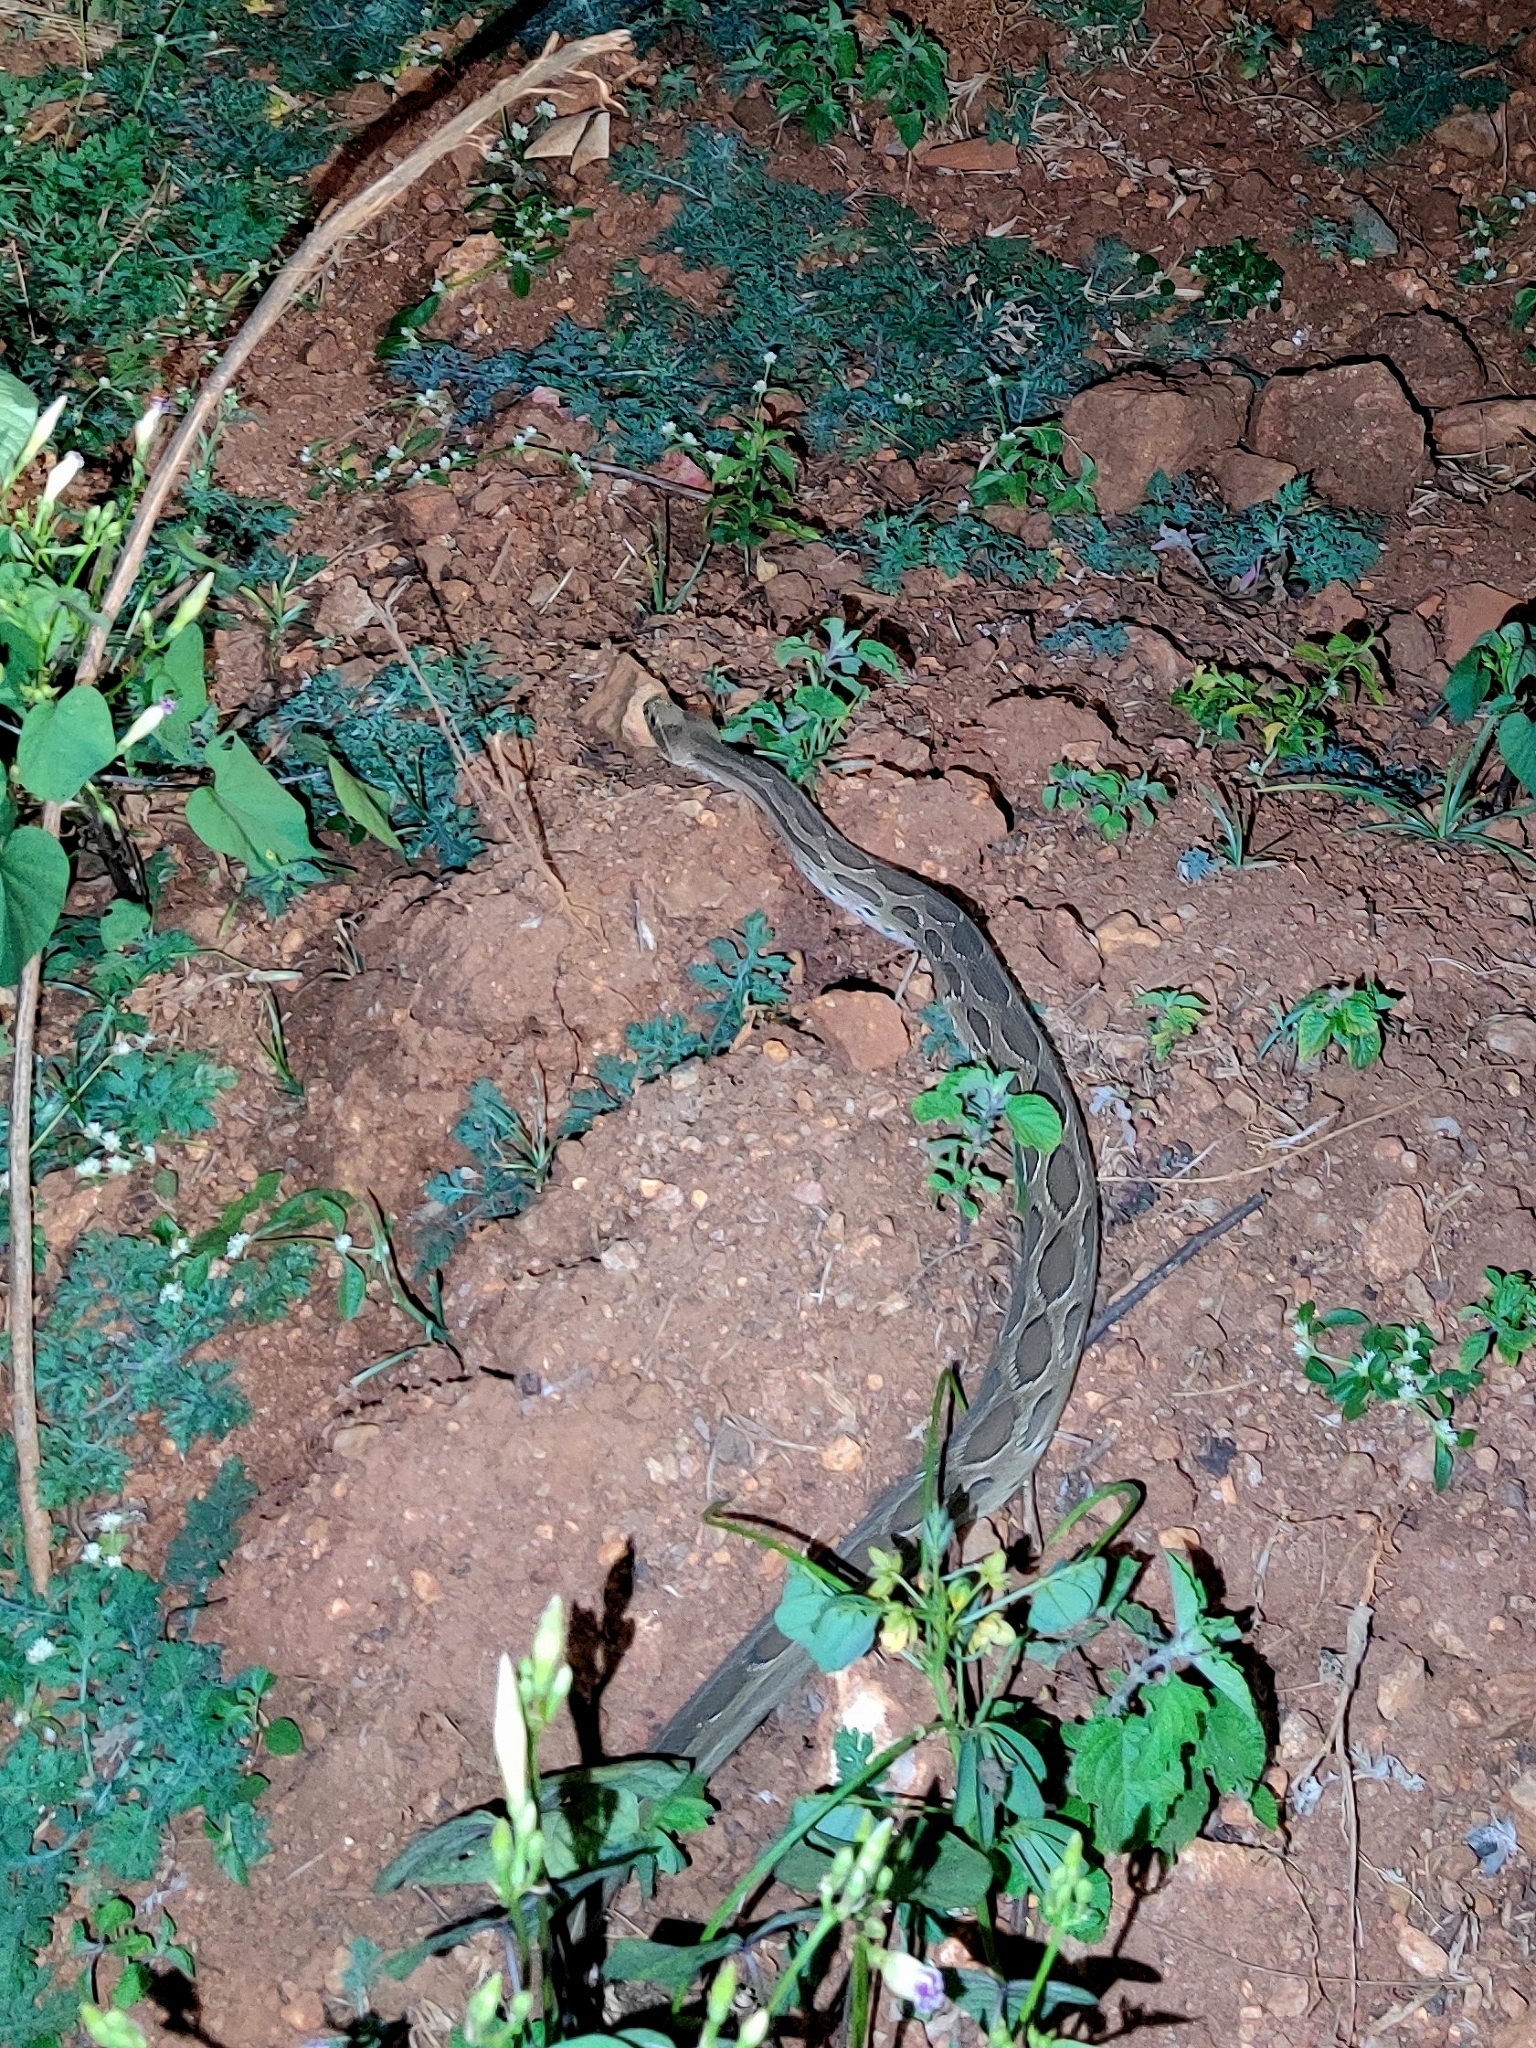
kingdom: Animalia
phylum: Chordata
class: Squamata
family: Viperidae
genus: Daboia
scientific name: Daboia russelii
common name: Western russel’s viper
